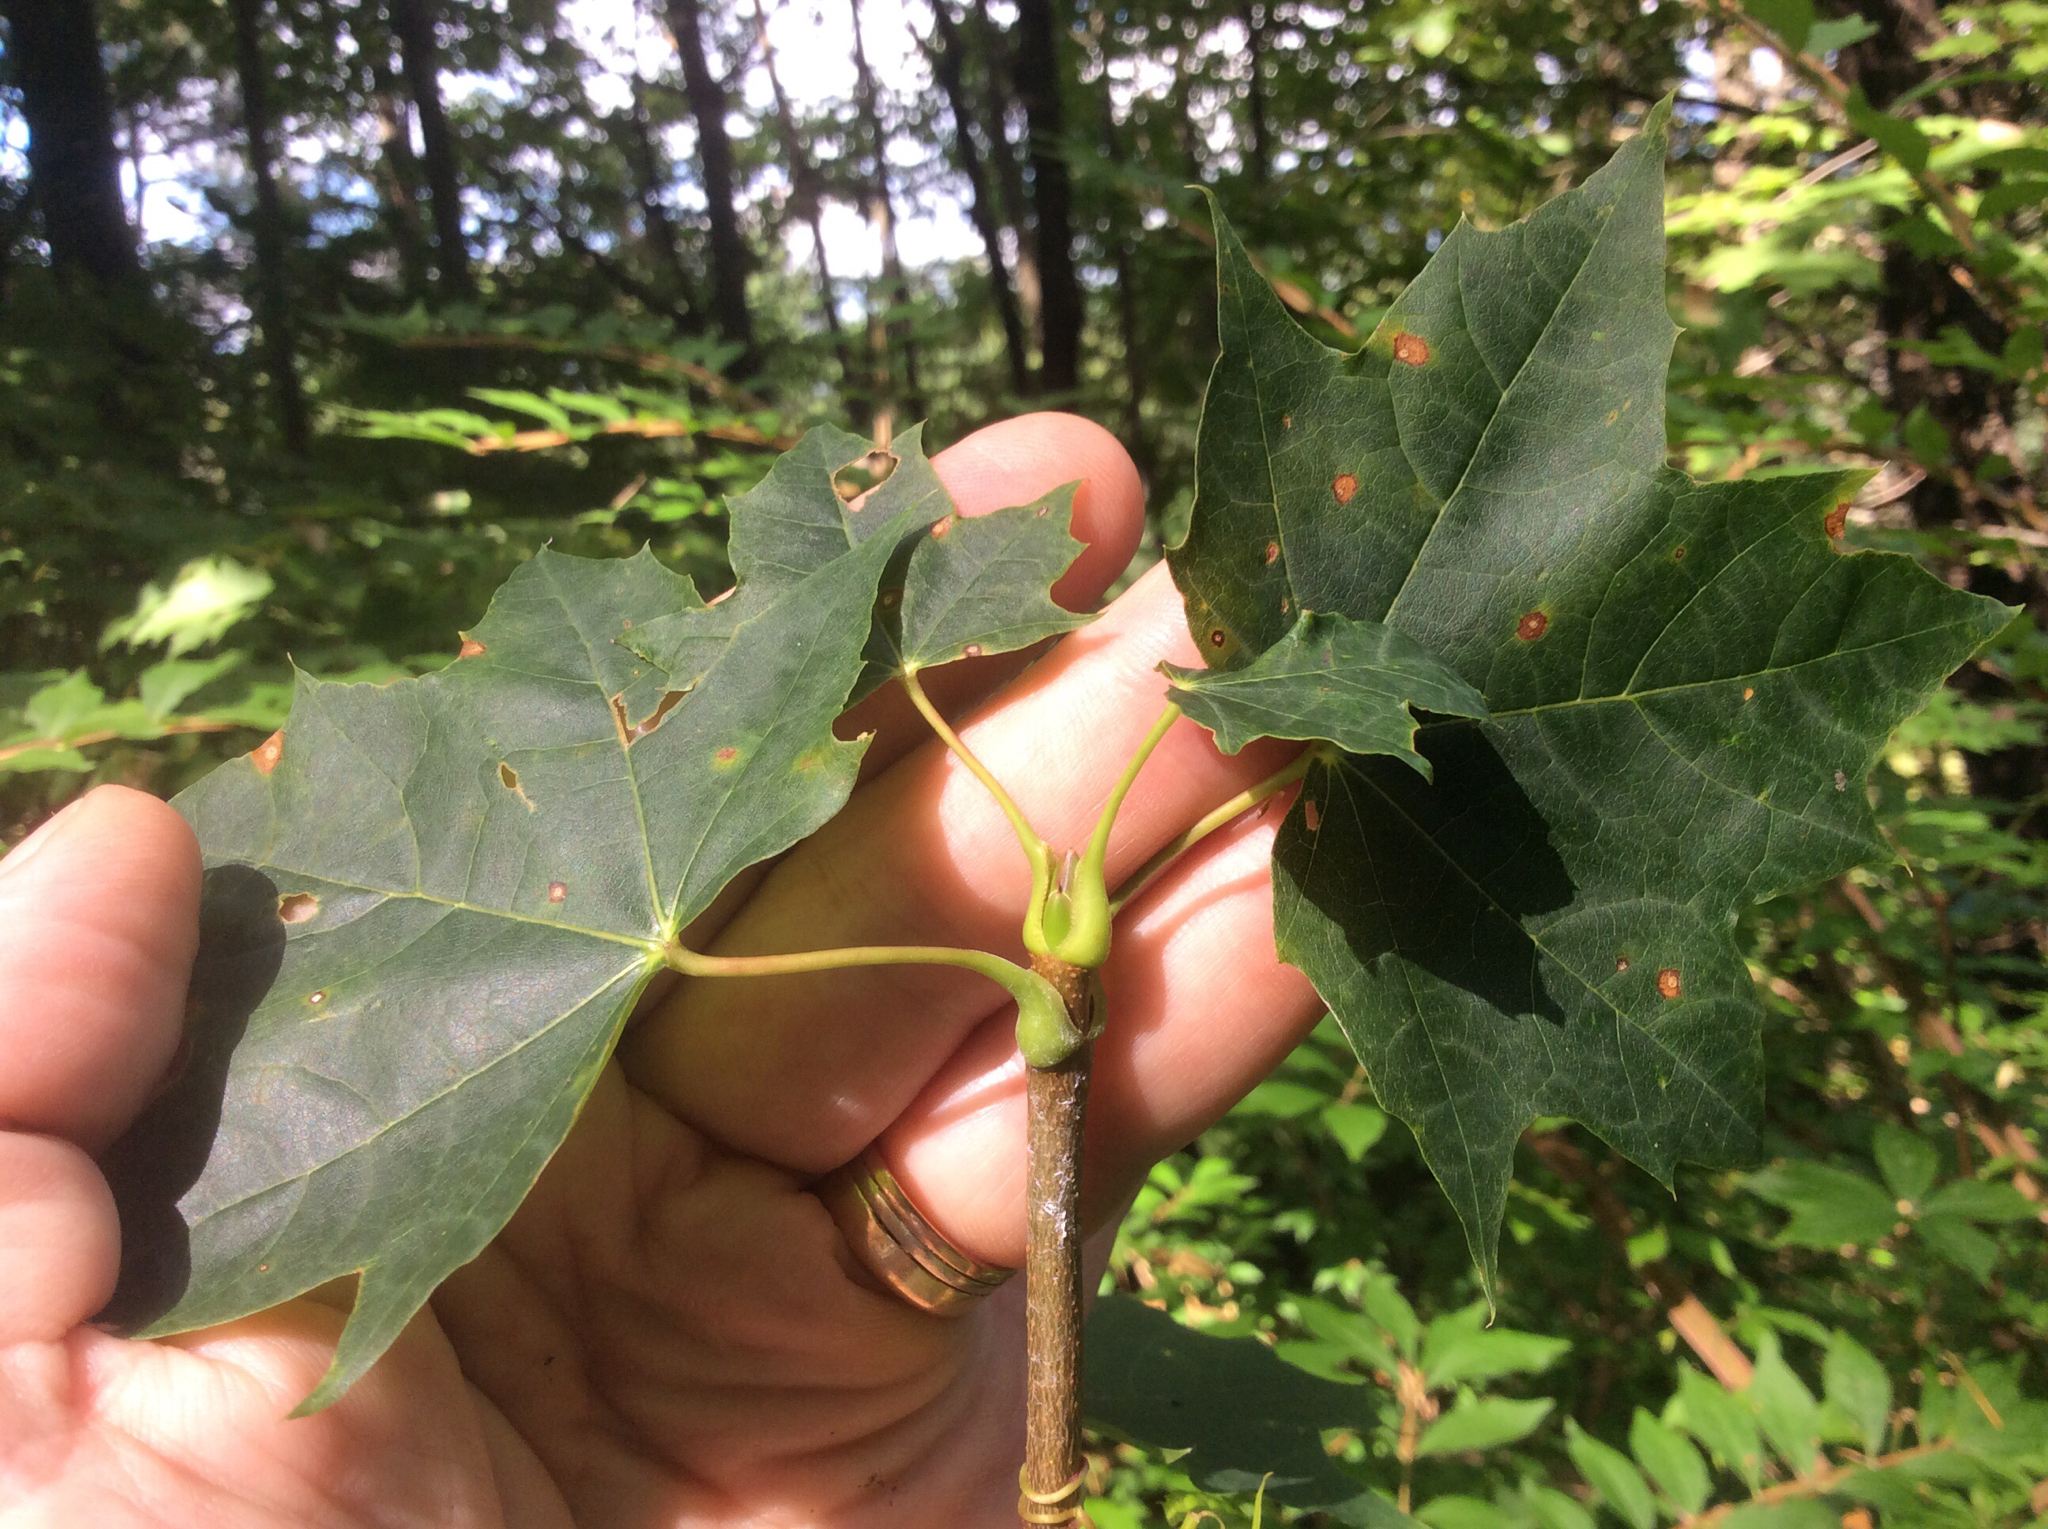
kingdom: Plantae
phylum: Tracheophyta
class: Magnoliopsida
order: Sapindales
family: Sapindaceae
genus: Acer
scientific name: Acer platanoides
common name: Norway maple
